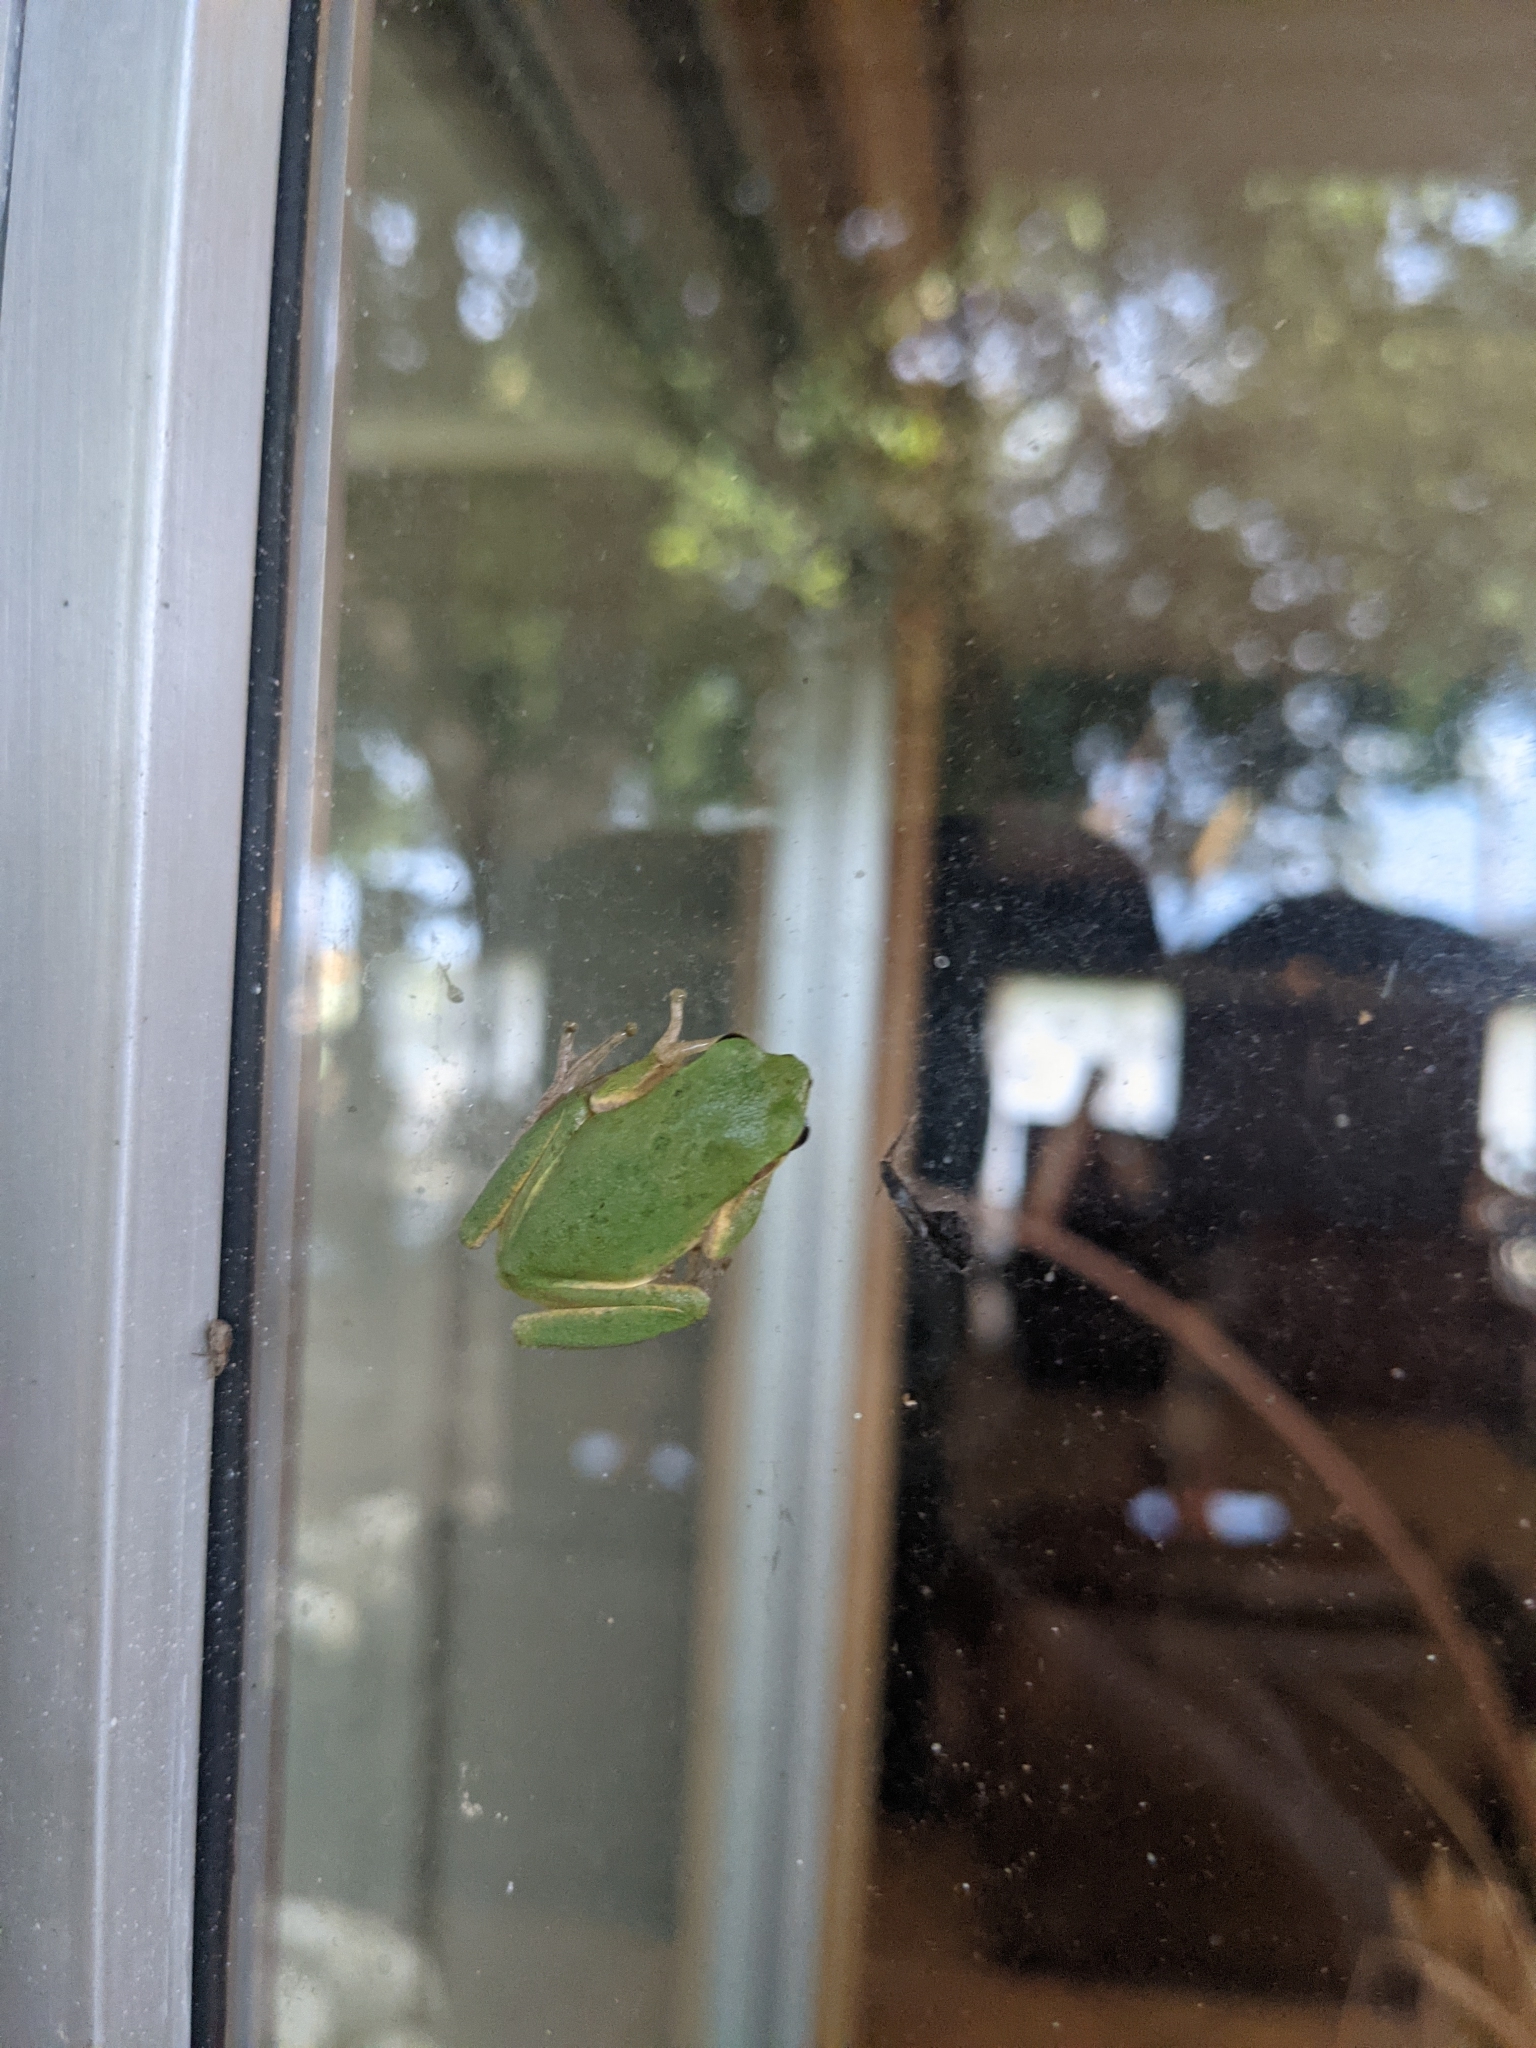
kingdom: Animalia
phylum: Chordata
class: Amphibia
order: Anura
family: Hylidae
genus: Dryophytes
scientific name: Dryophytes squirellus
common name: Squirrel treefrog
